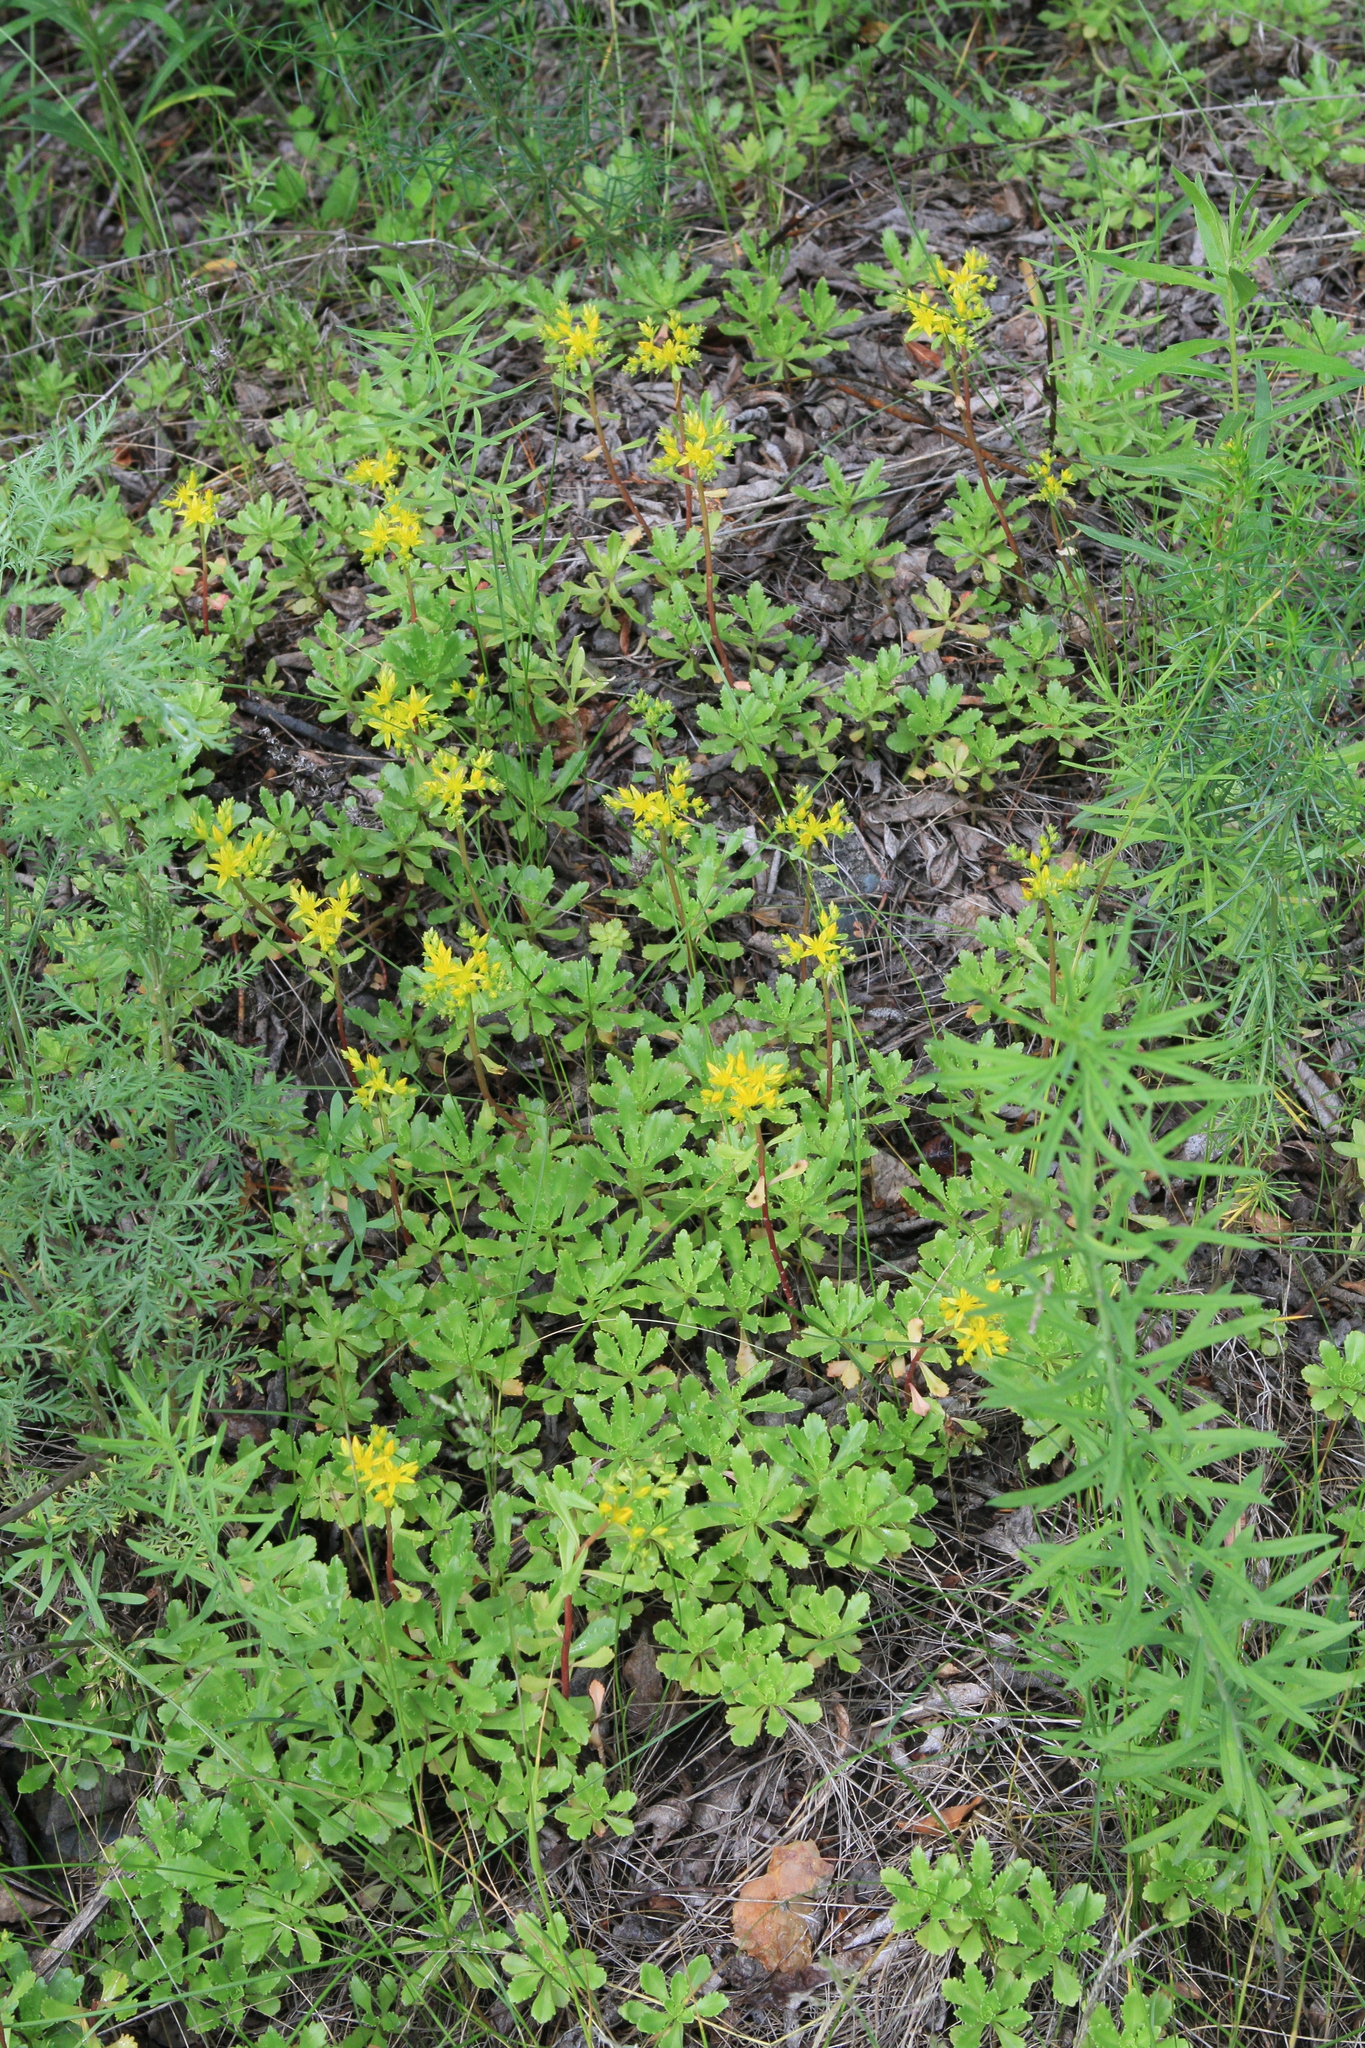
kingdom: Plantae
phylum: Tracheophyta
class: Magnoliopsida
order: Saxifragales
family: Crassulaceae
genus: Phedimus
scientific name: Phedimus hybridus
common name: Hybrid stonecrop
